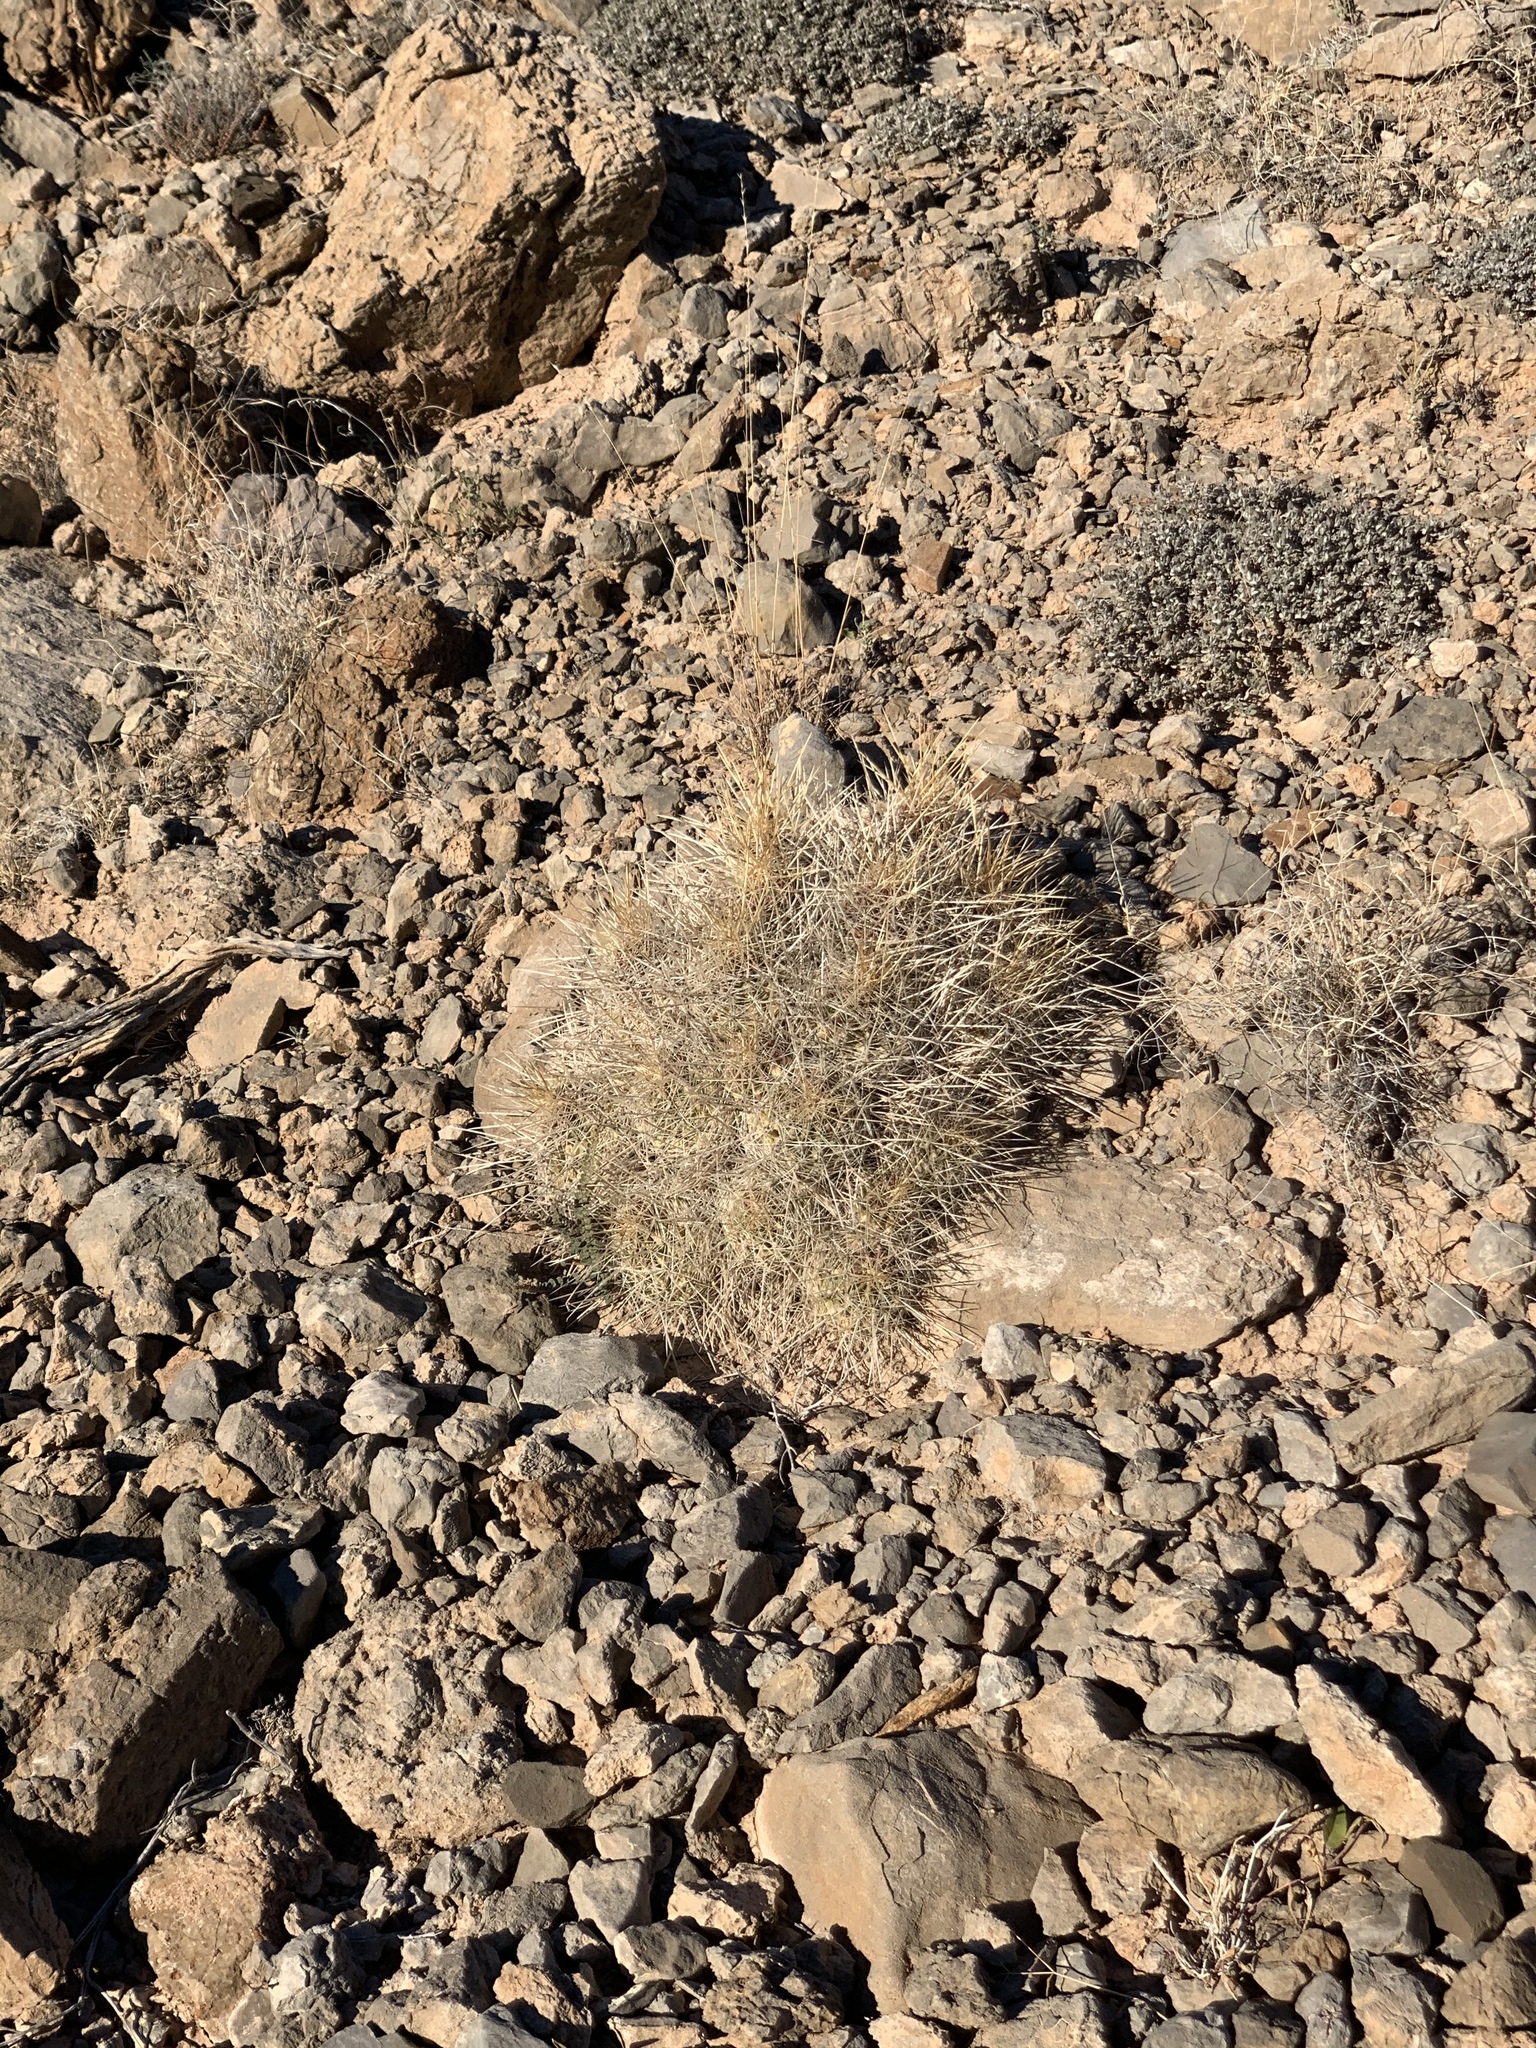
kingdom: Plantae
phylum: Tracheophyta
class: Magnoliopsida
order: Caryophyllales
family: Cactaceae
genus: Echinocereus
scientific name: Echinocereus stramineus
